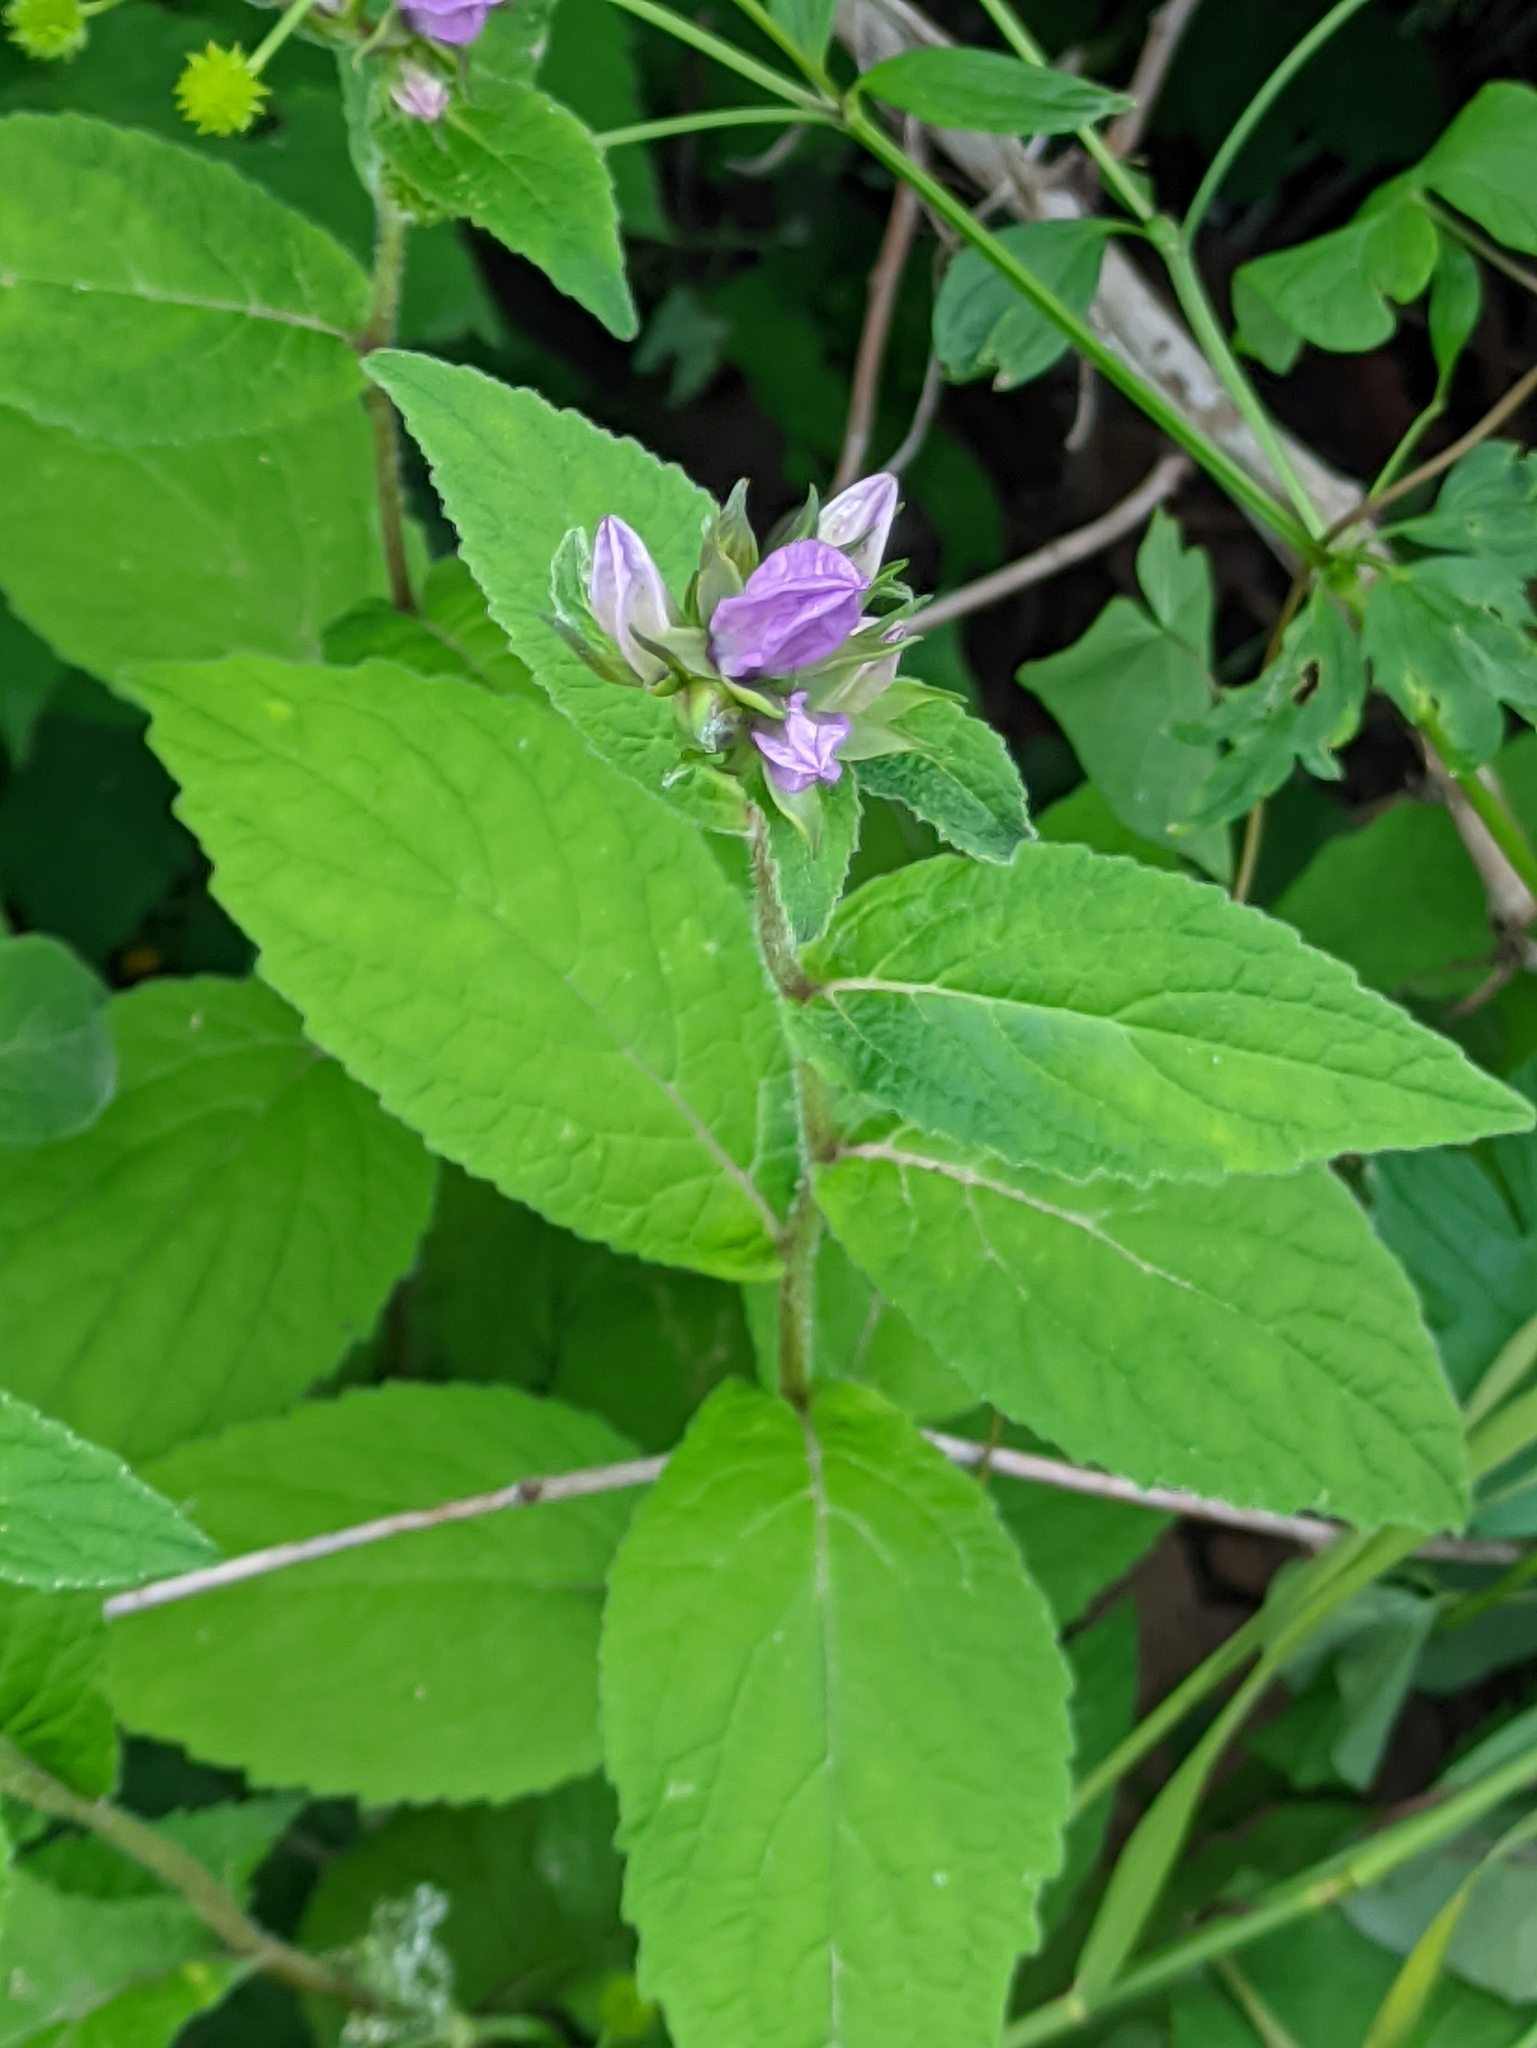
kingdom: Plantae
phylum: Tracheophyta
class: Magnoliopsida
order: Asterales
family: Campanulaceae
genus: Campanula
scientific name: Campanula latifolia
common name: Giant bellflower
